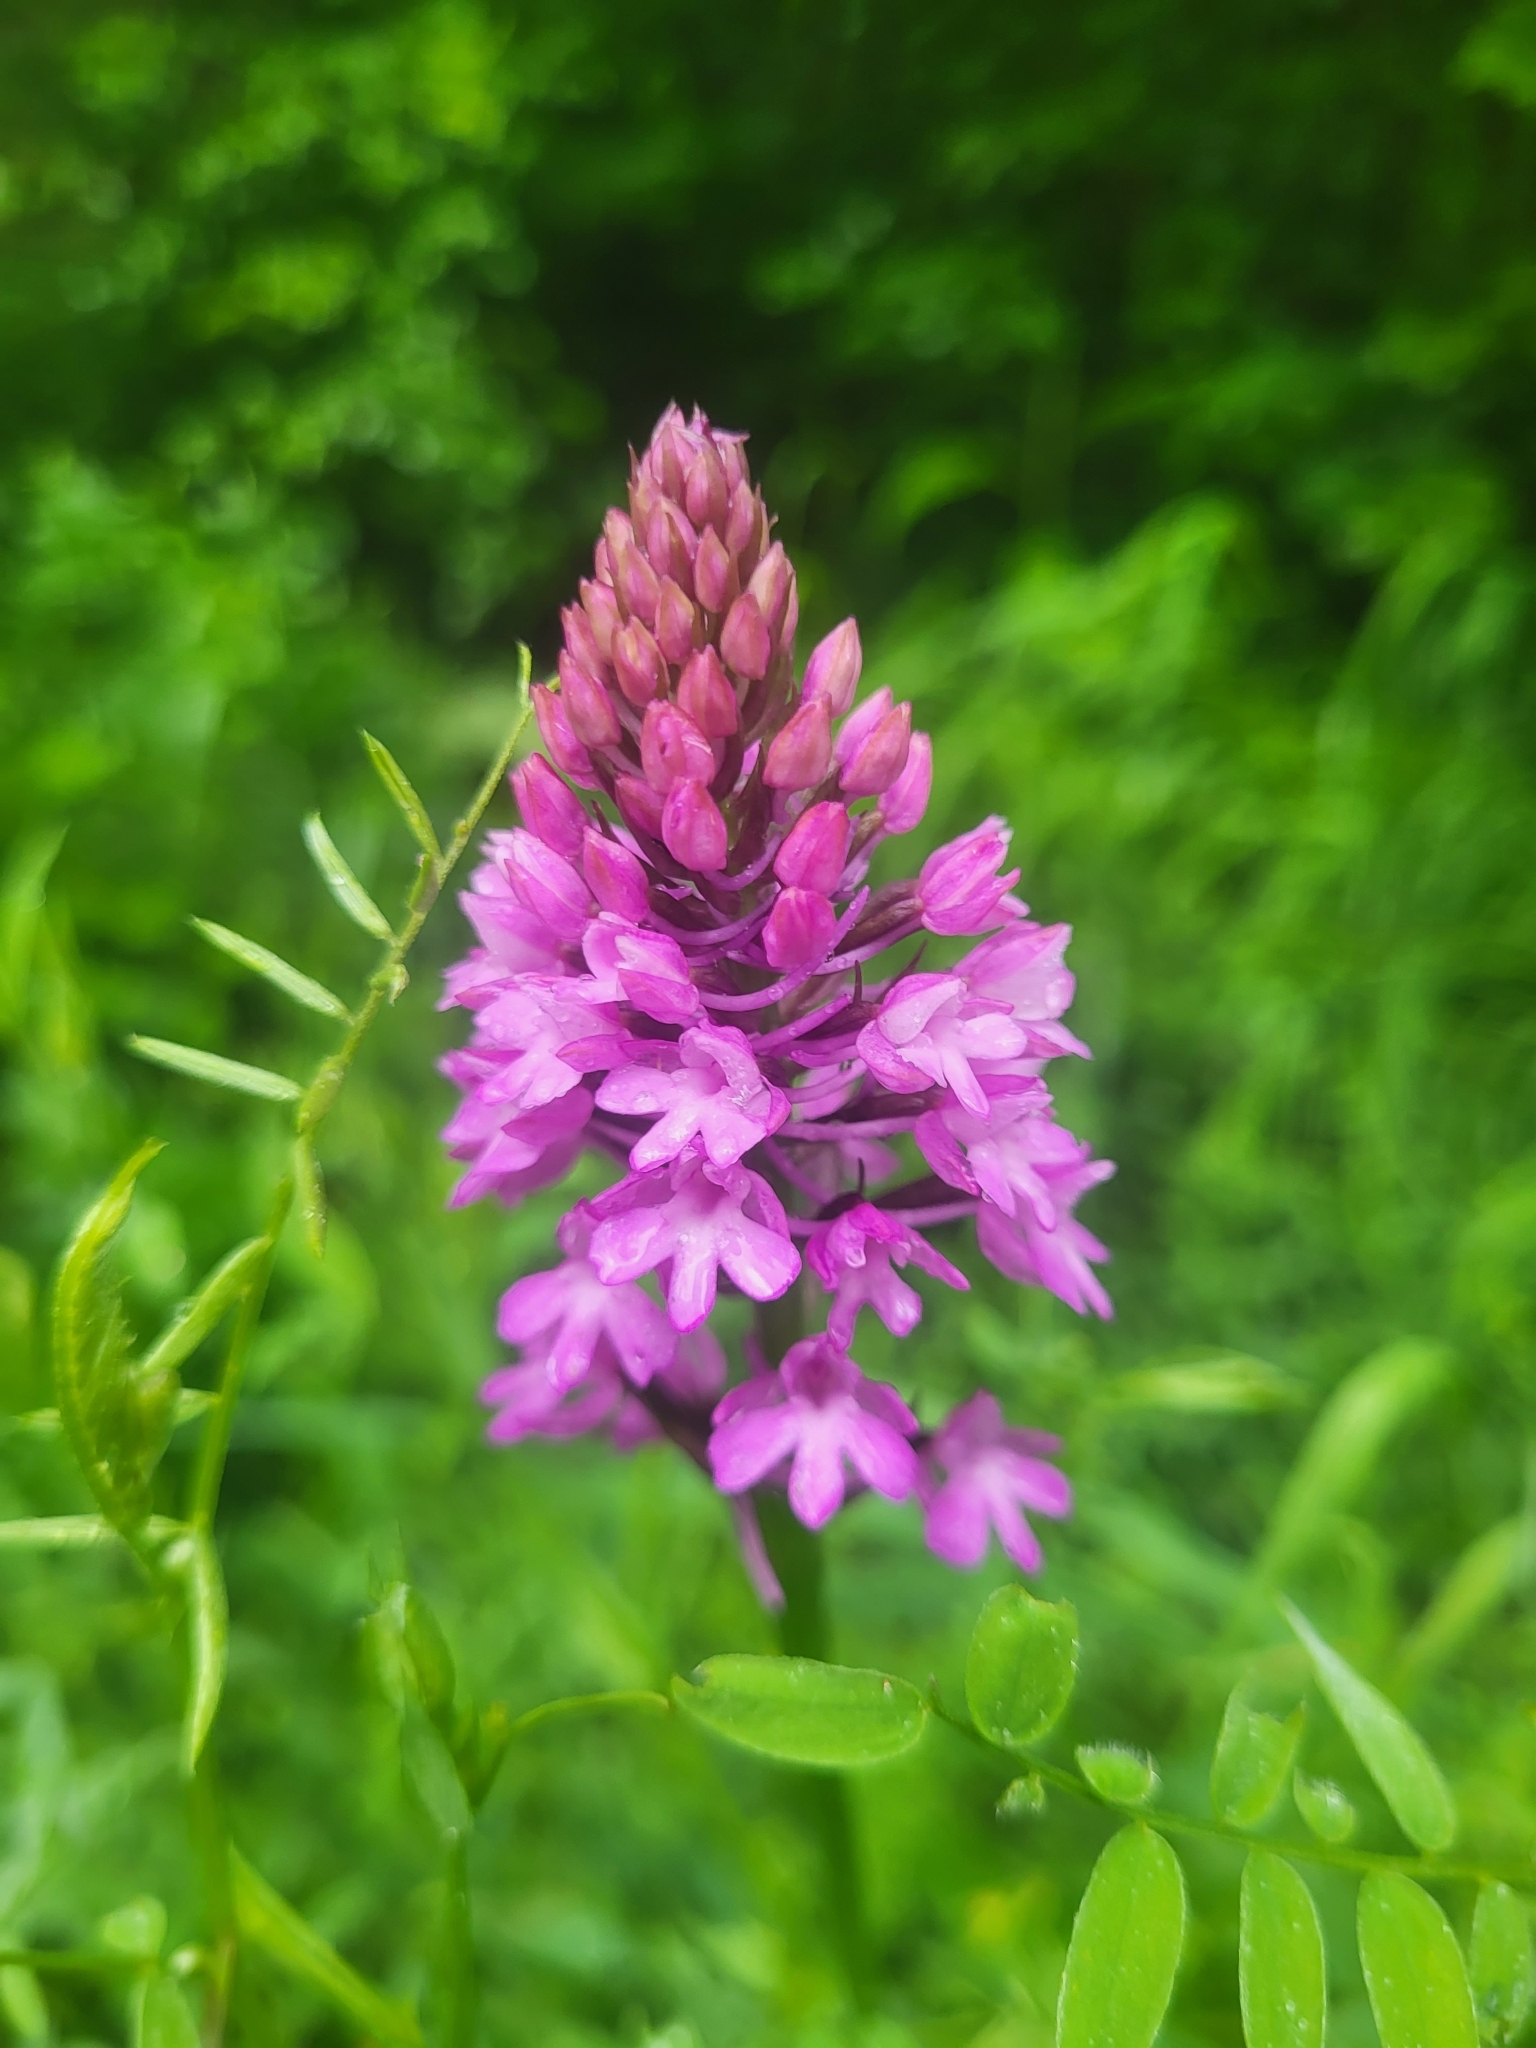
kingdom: Plantae
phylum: Tracheophyta
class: Liliopsida
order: Asparagales
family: Orchidaceae
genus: Anacamptis
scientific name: Anacamptis pyramidalis
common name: Pyramidal orchid
